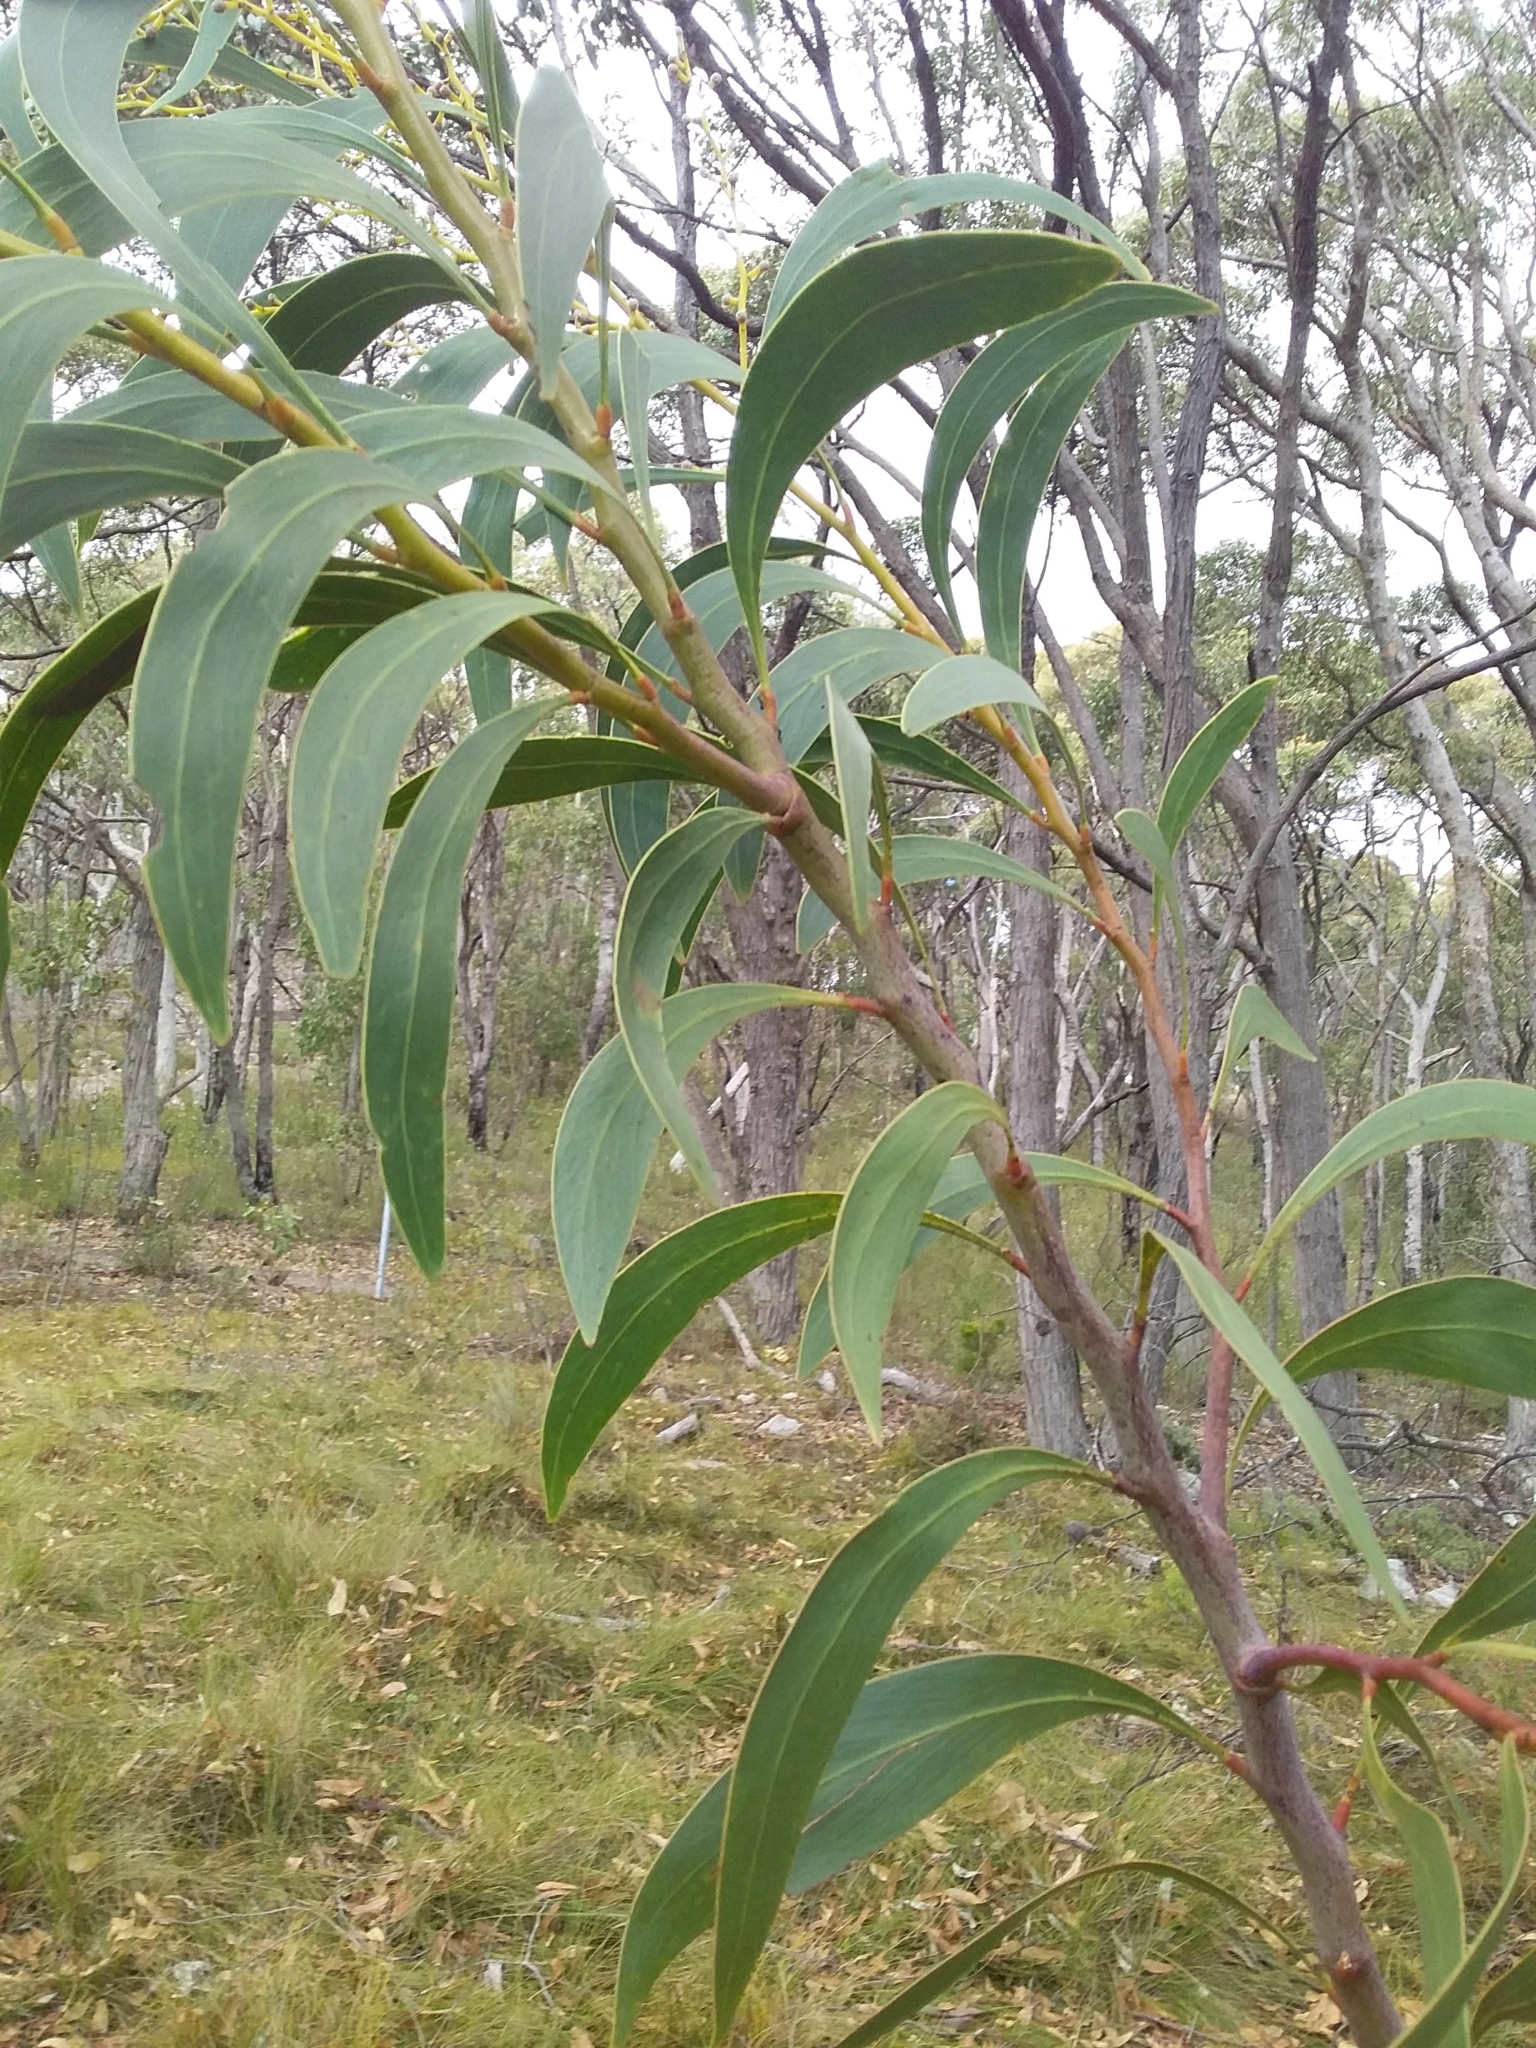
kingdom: Plantae
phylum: Tracheophyta
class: Magnoliopsida
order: Fabales
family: Fabaceae
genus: Acacia
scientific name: Acacia pycnantha
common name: Golden wattle
